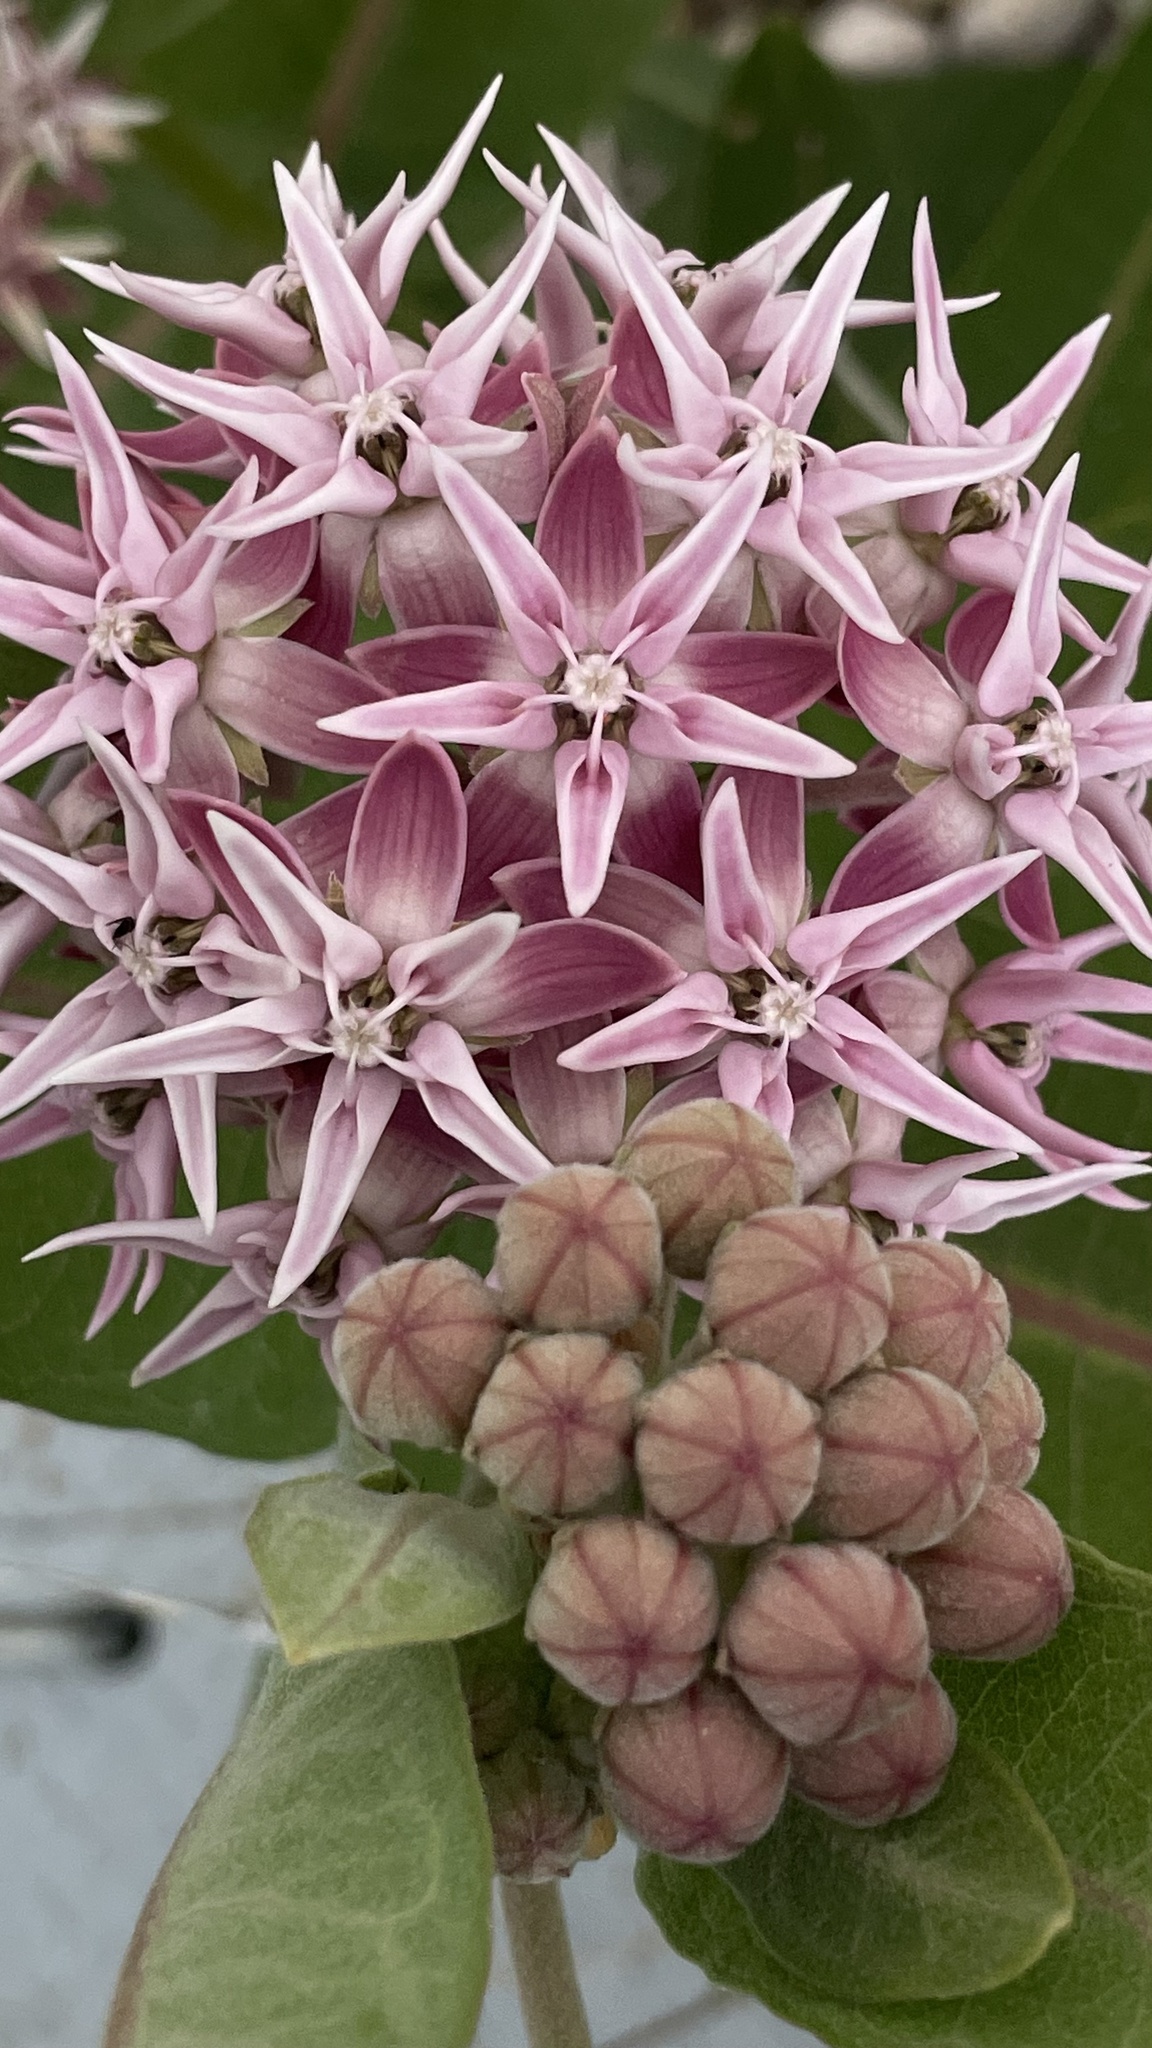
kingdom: Plantae
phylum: Tracheophyta
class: Magnoliopsida
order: Gentianales
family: Apocynaceae
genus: Asclepias
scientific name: Asclepias speciosa
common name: Showy milkweed
